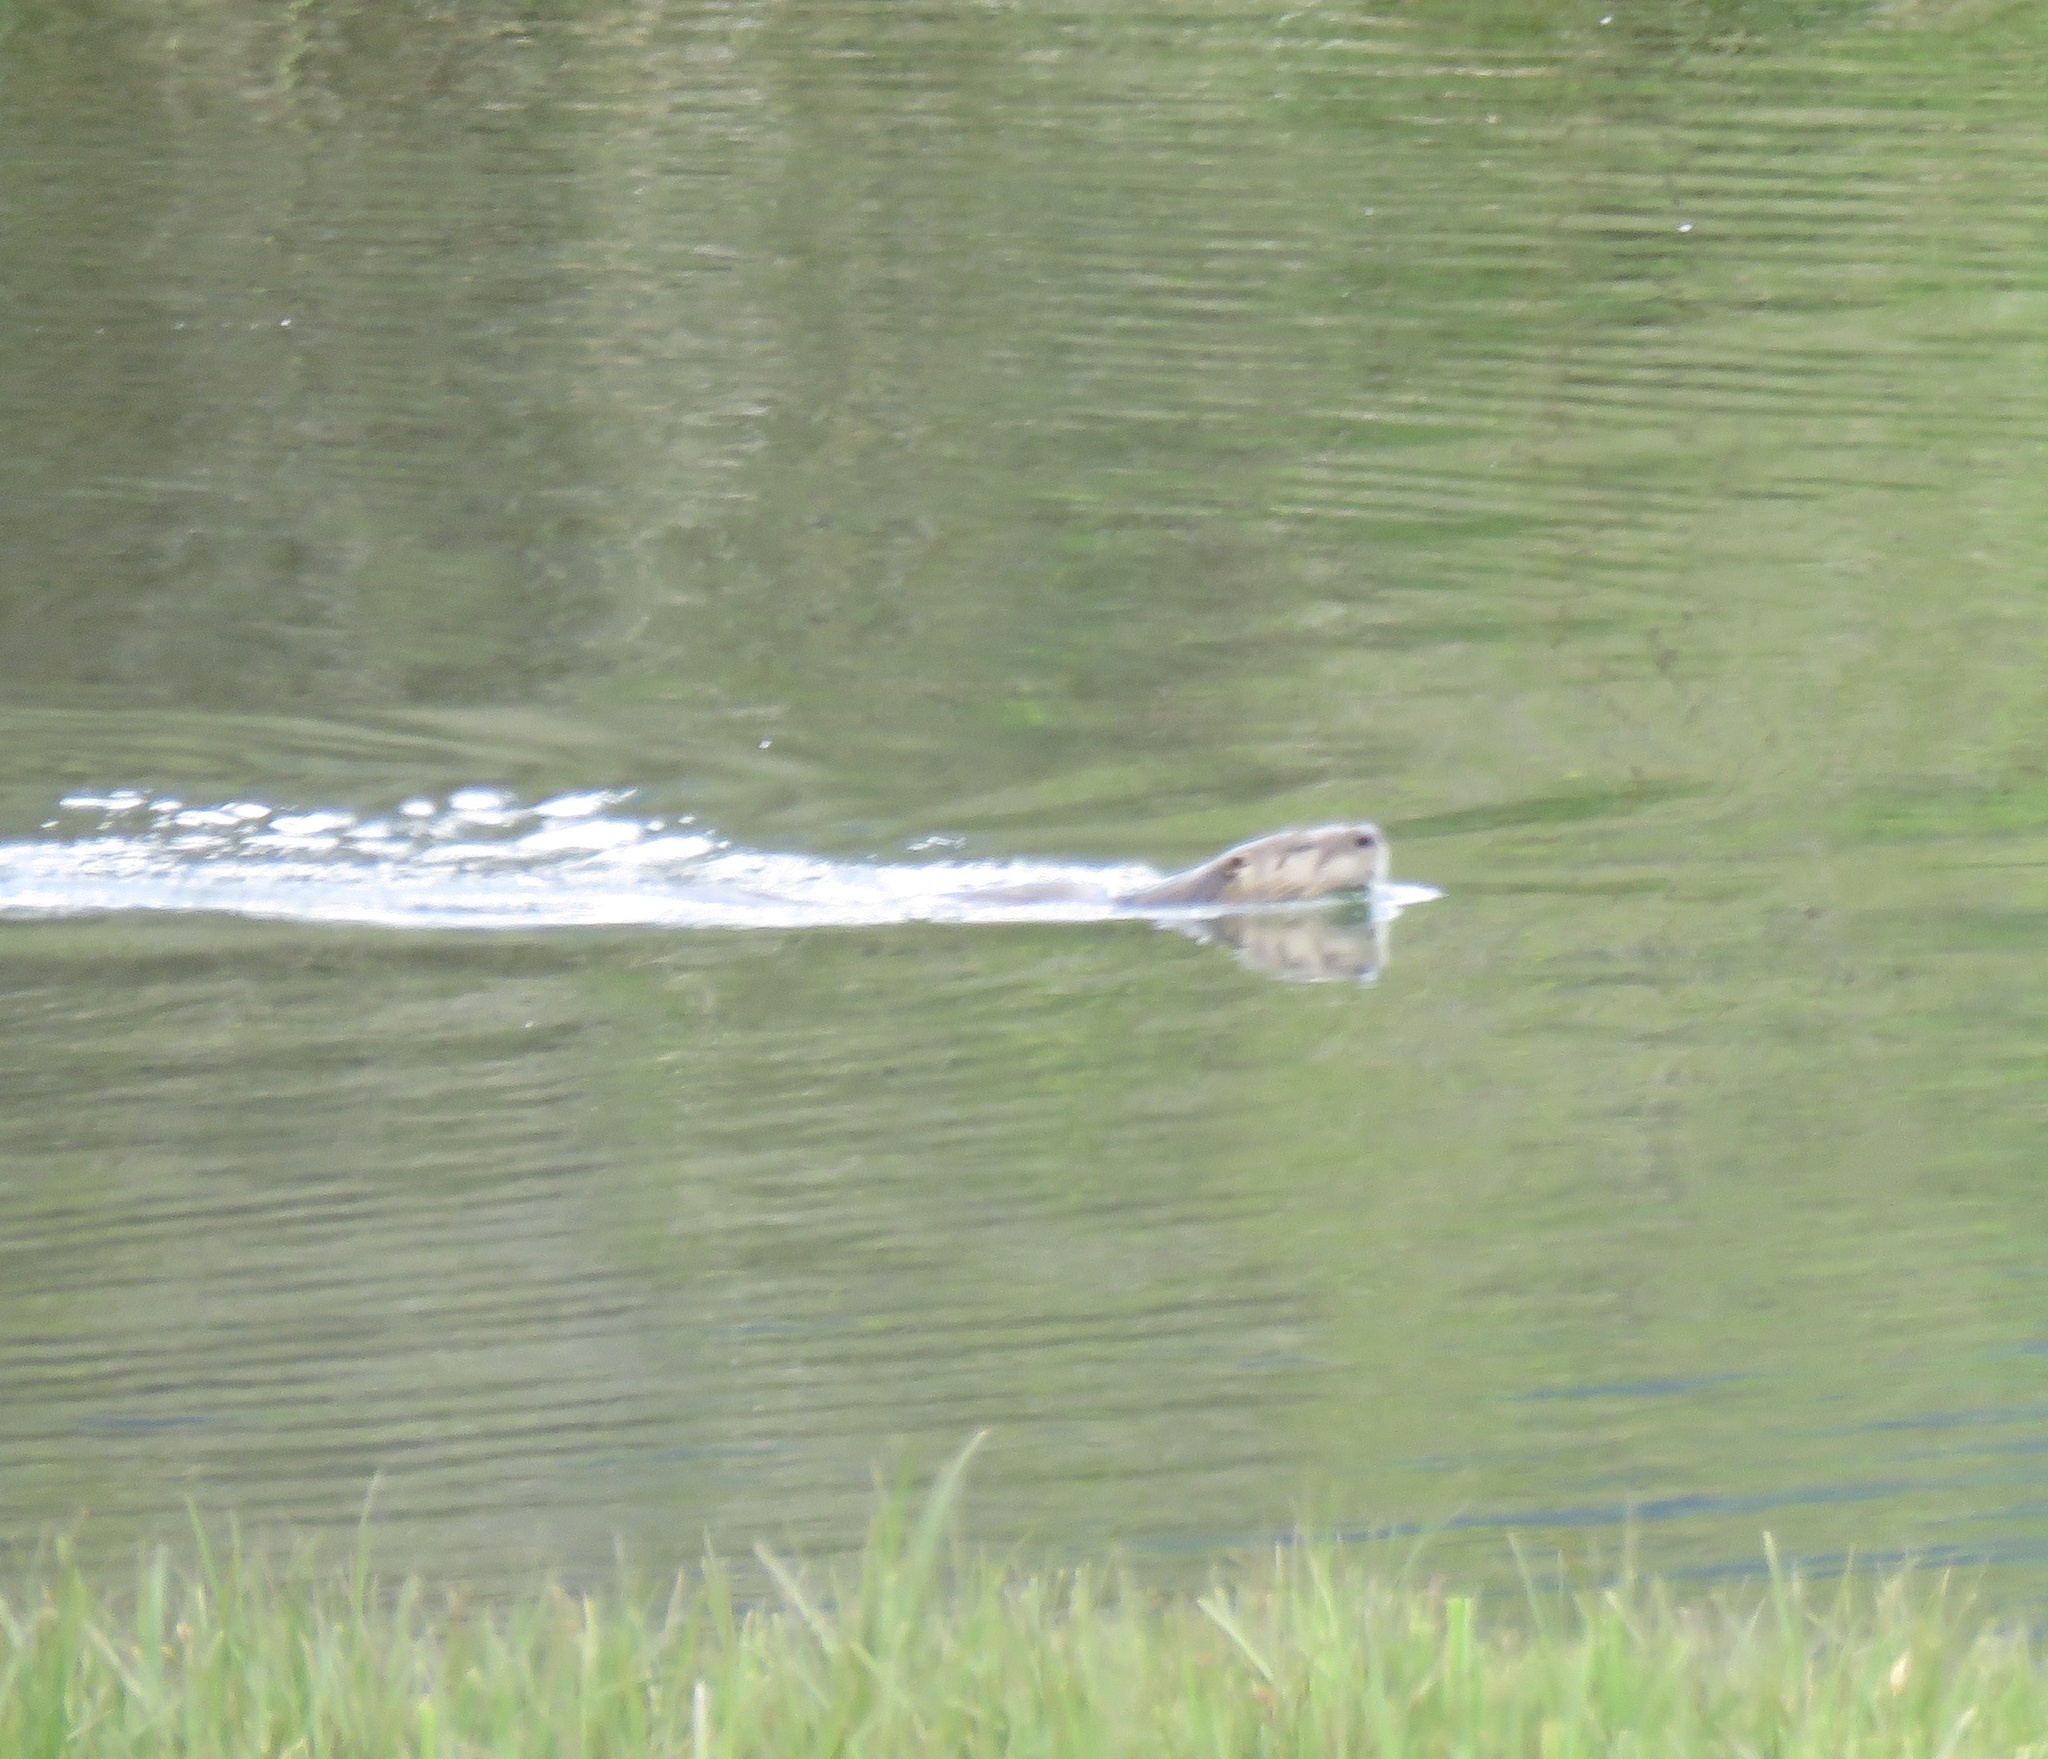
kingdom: Animalia
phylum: Chordata
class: Mammalia
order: Carnivora
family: Mustelidae
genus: Lontra
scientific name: Lontra canadensis
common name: North american river otter
